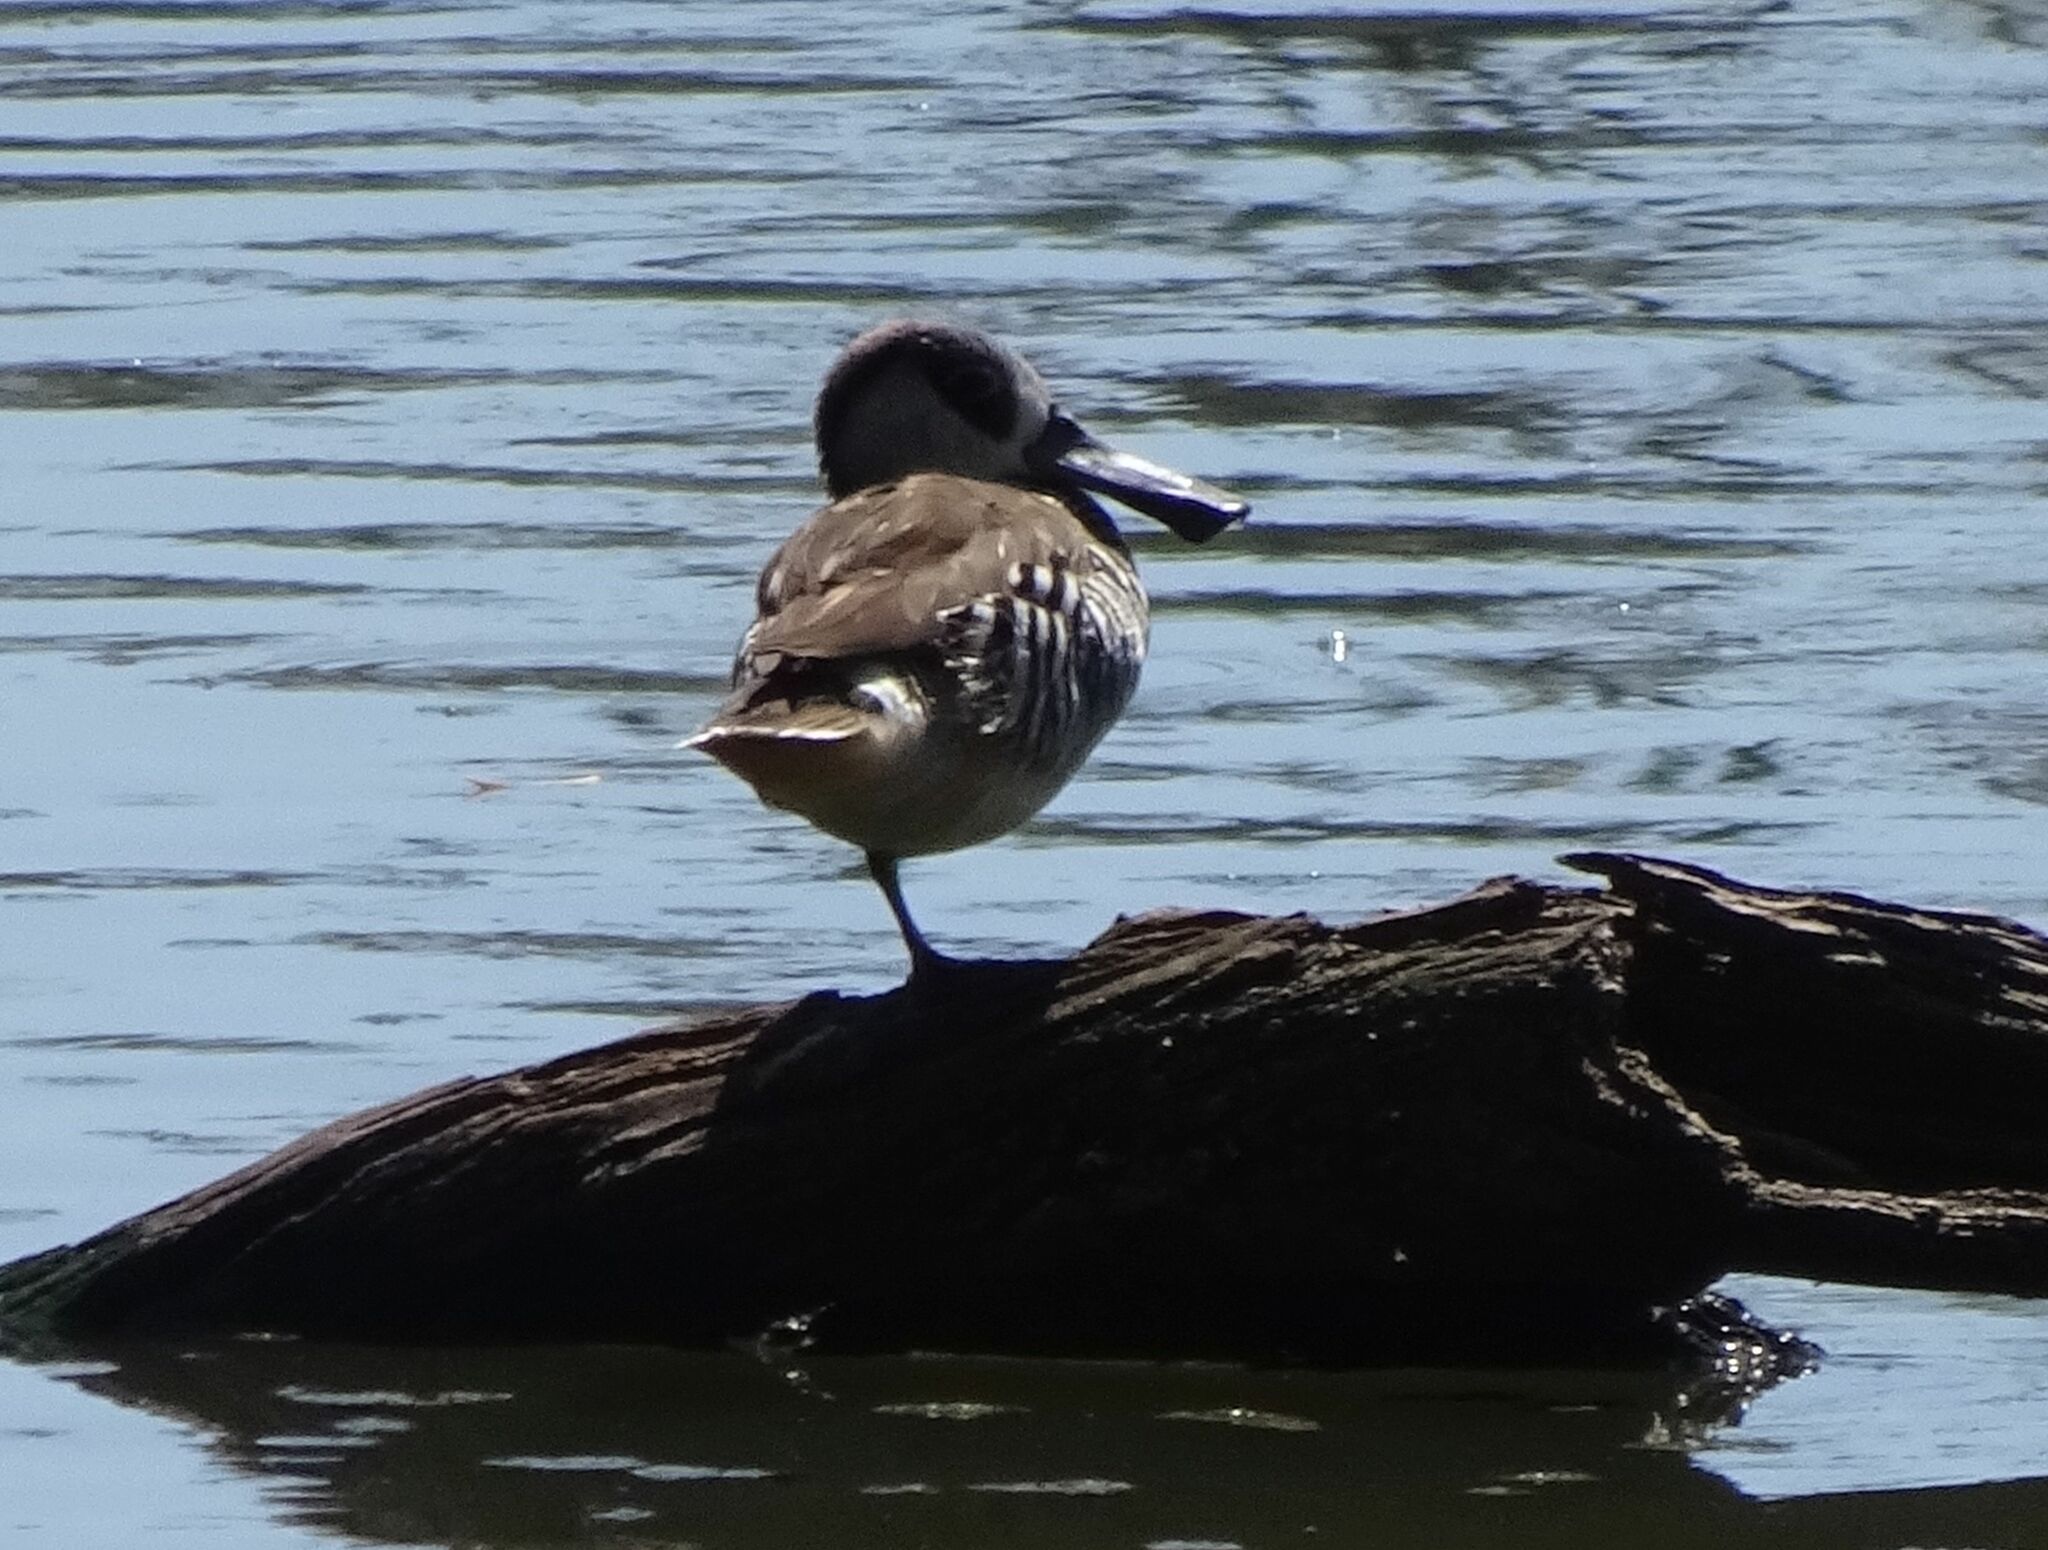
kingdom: Animalia
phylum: Chordata
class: Aves
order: Anseriformes
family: Anatidae
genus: Malacorhynchus
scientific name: Malacorhynchus membranaceus
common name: Pink-eared duck
